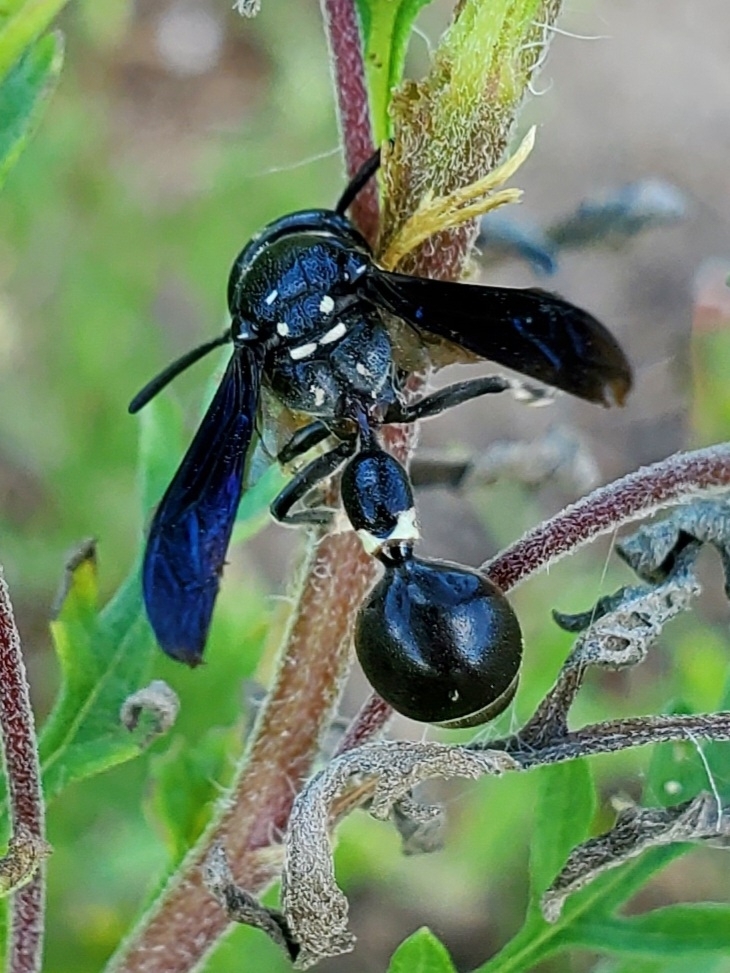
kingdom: Animalia
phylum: Arthropoda
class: Insecta
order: Hymenoptera
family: Eumenidae
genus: Zethus
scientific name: Zethus spinipes
